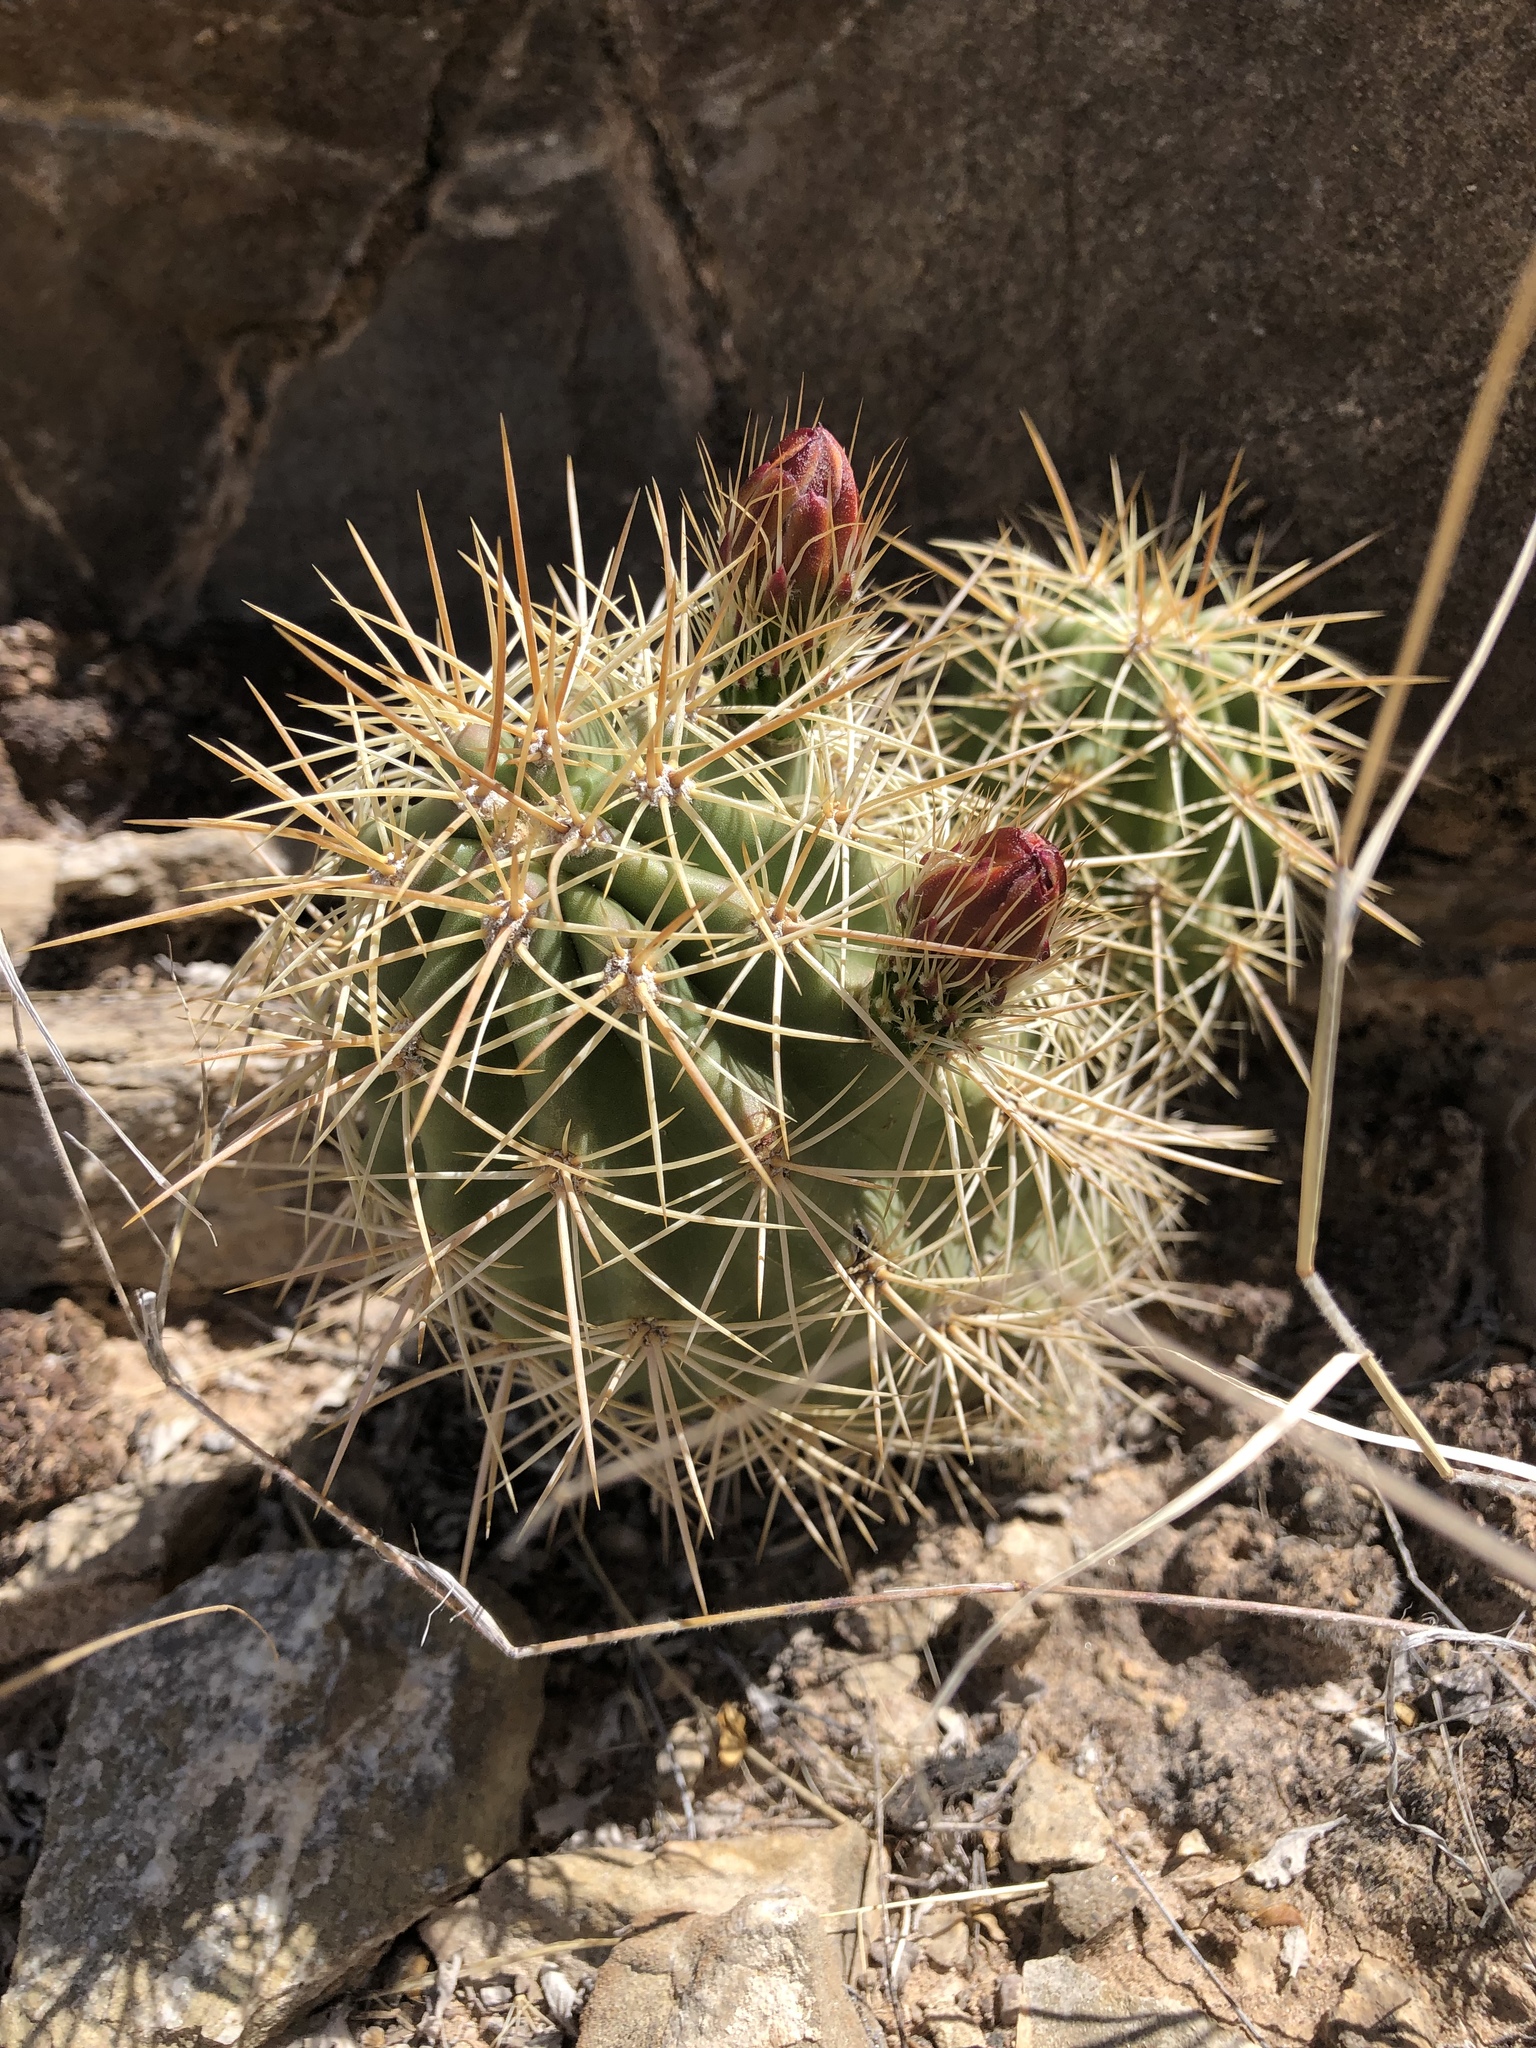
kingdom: Plantae
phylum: Tracheophyta
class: Magnoliopsida
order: Caryophyllales
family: Cactaceae
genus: Echinocereus
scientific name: Echinocereus coccineus
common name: Scarlet hedgehog cactus
